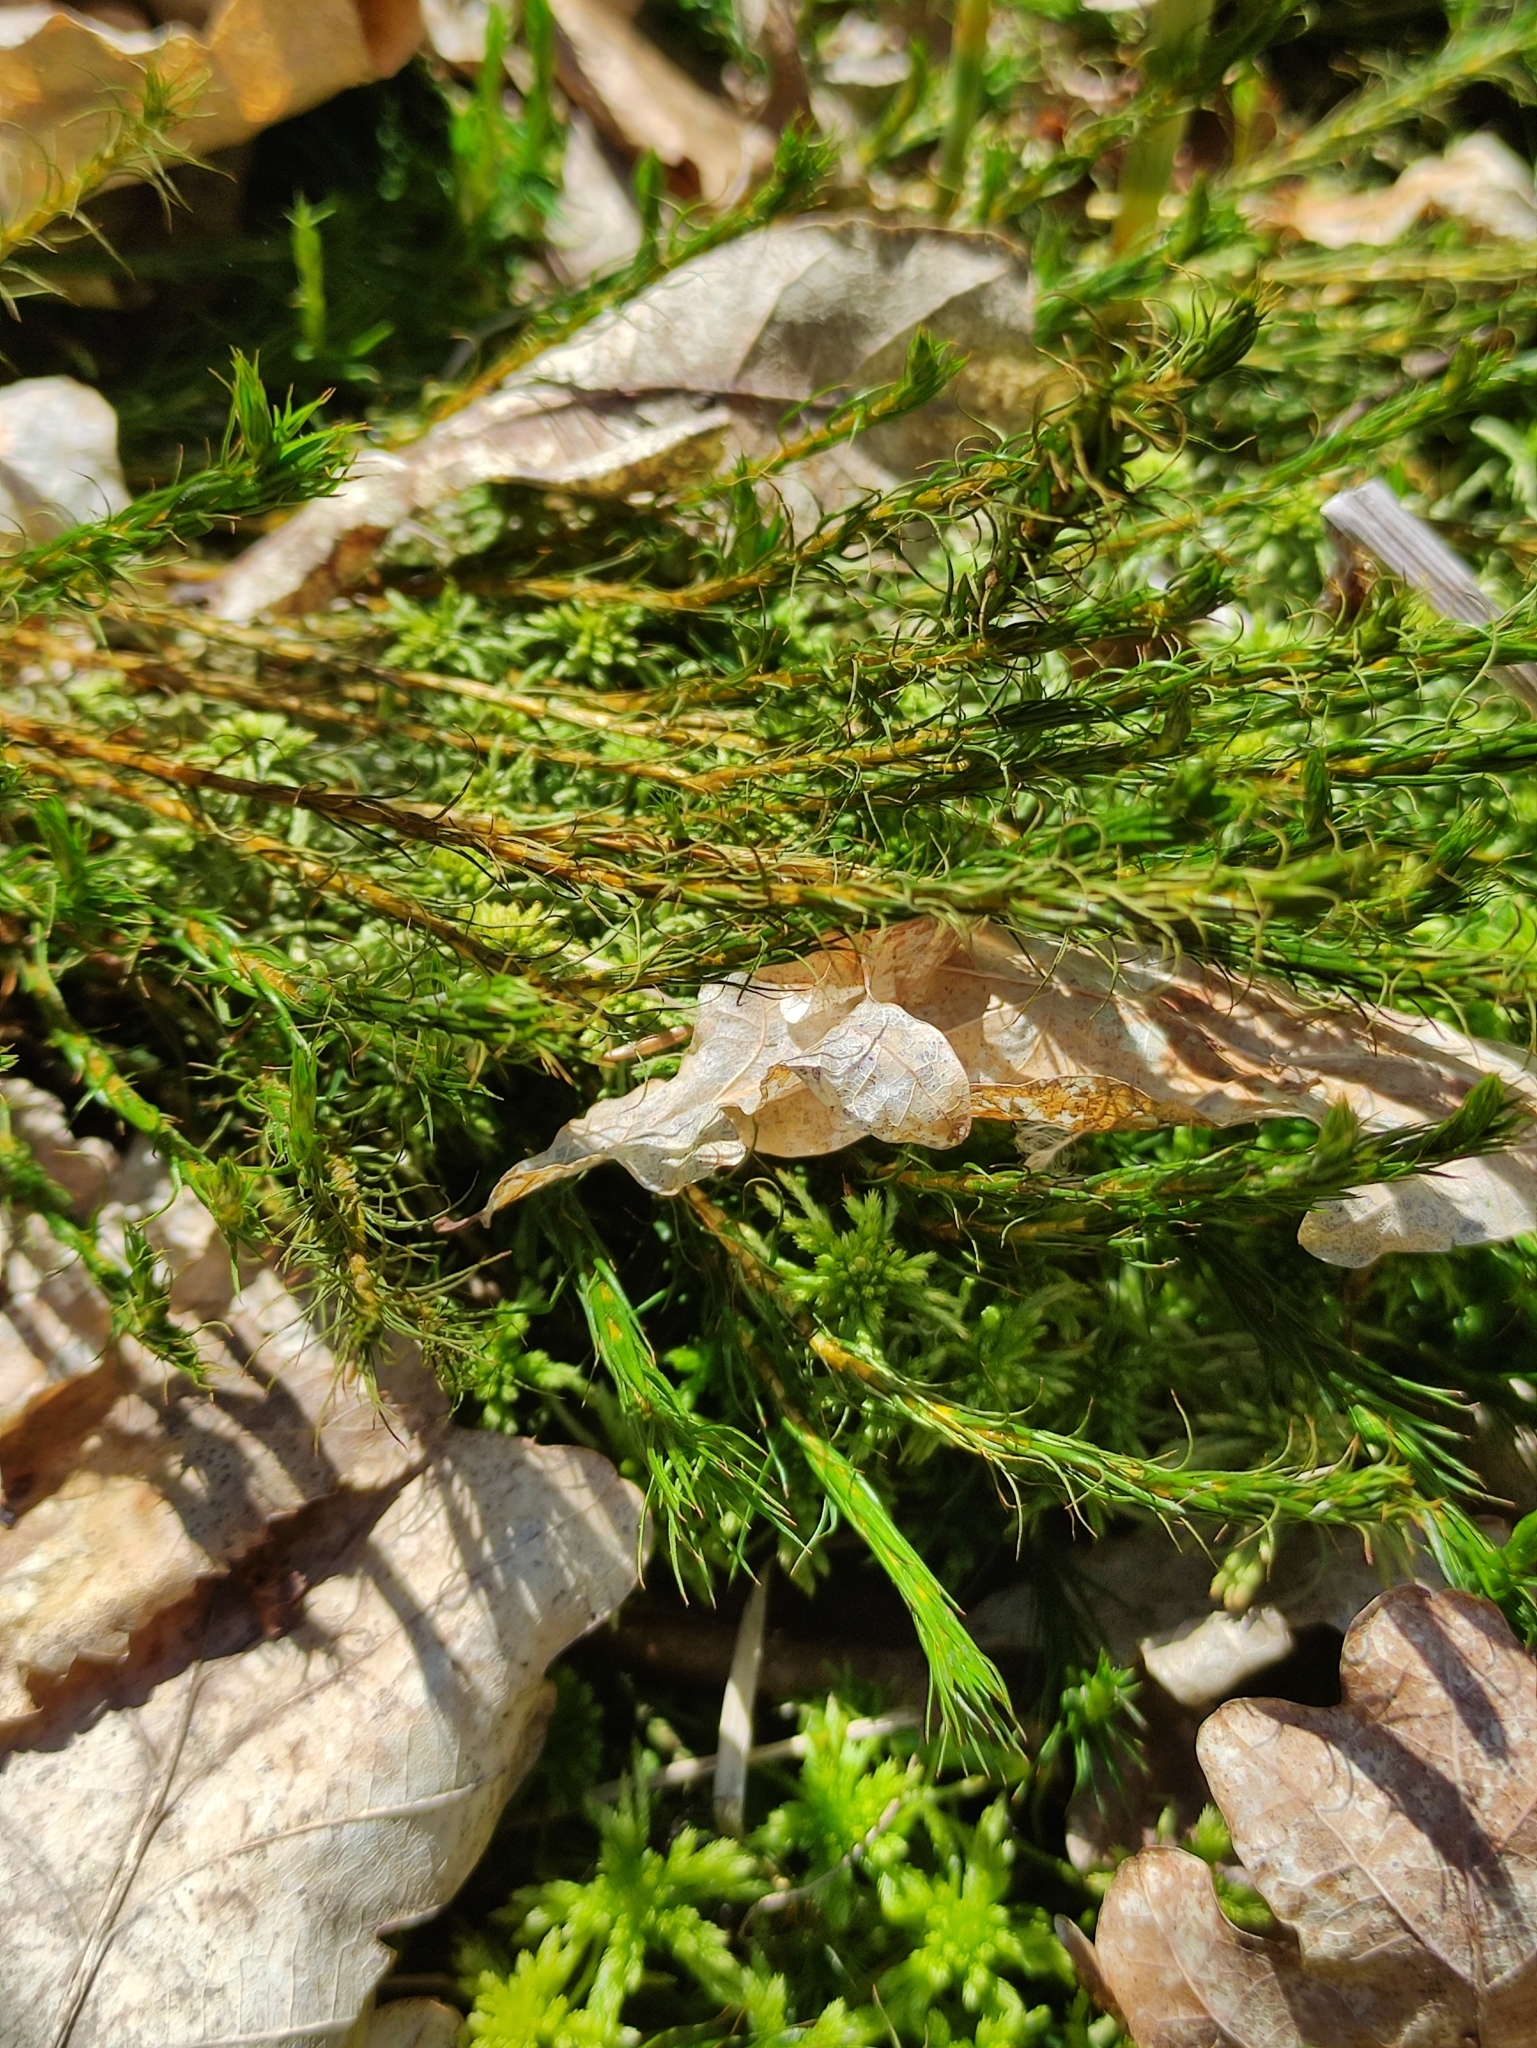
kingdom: Plantae
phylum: Bryophyta
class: Polytrichopsida
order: Polytrichales
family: Polytrichaceae
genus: Polytrichum
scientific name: Polytrichum commune
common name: Common haircap
